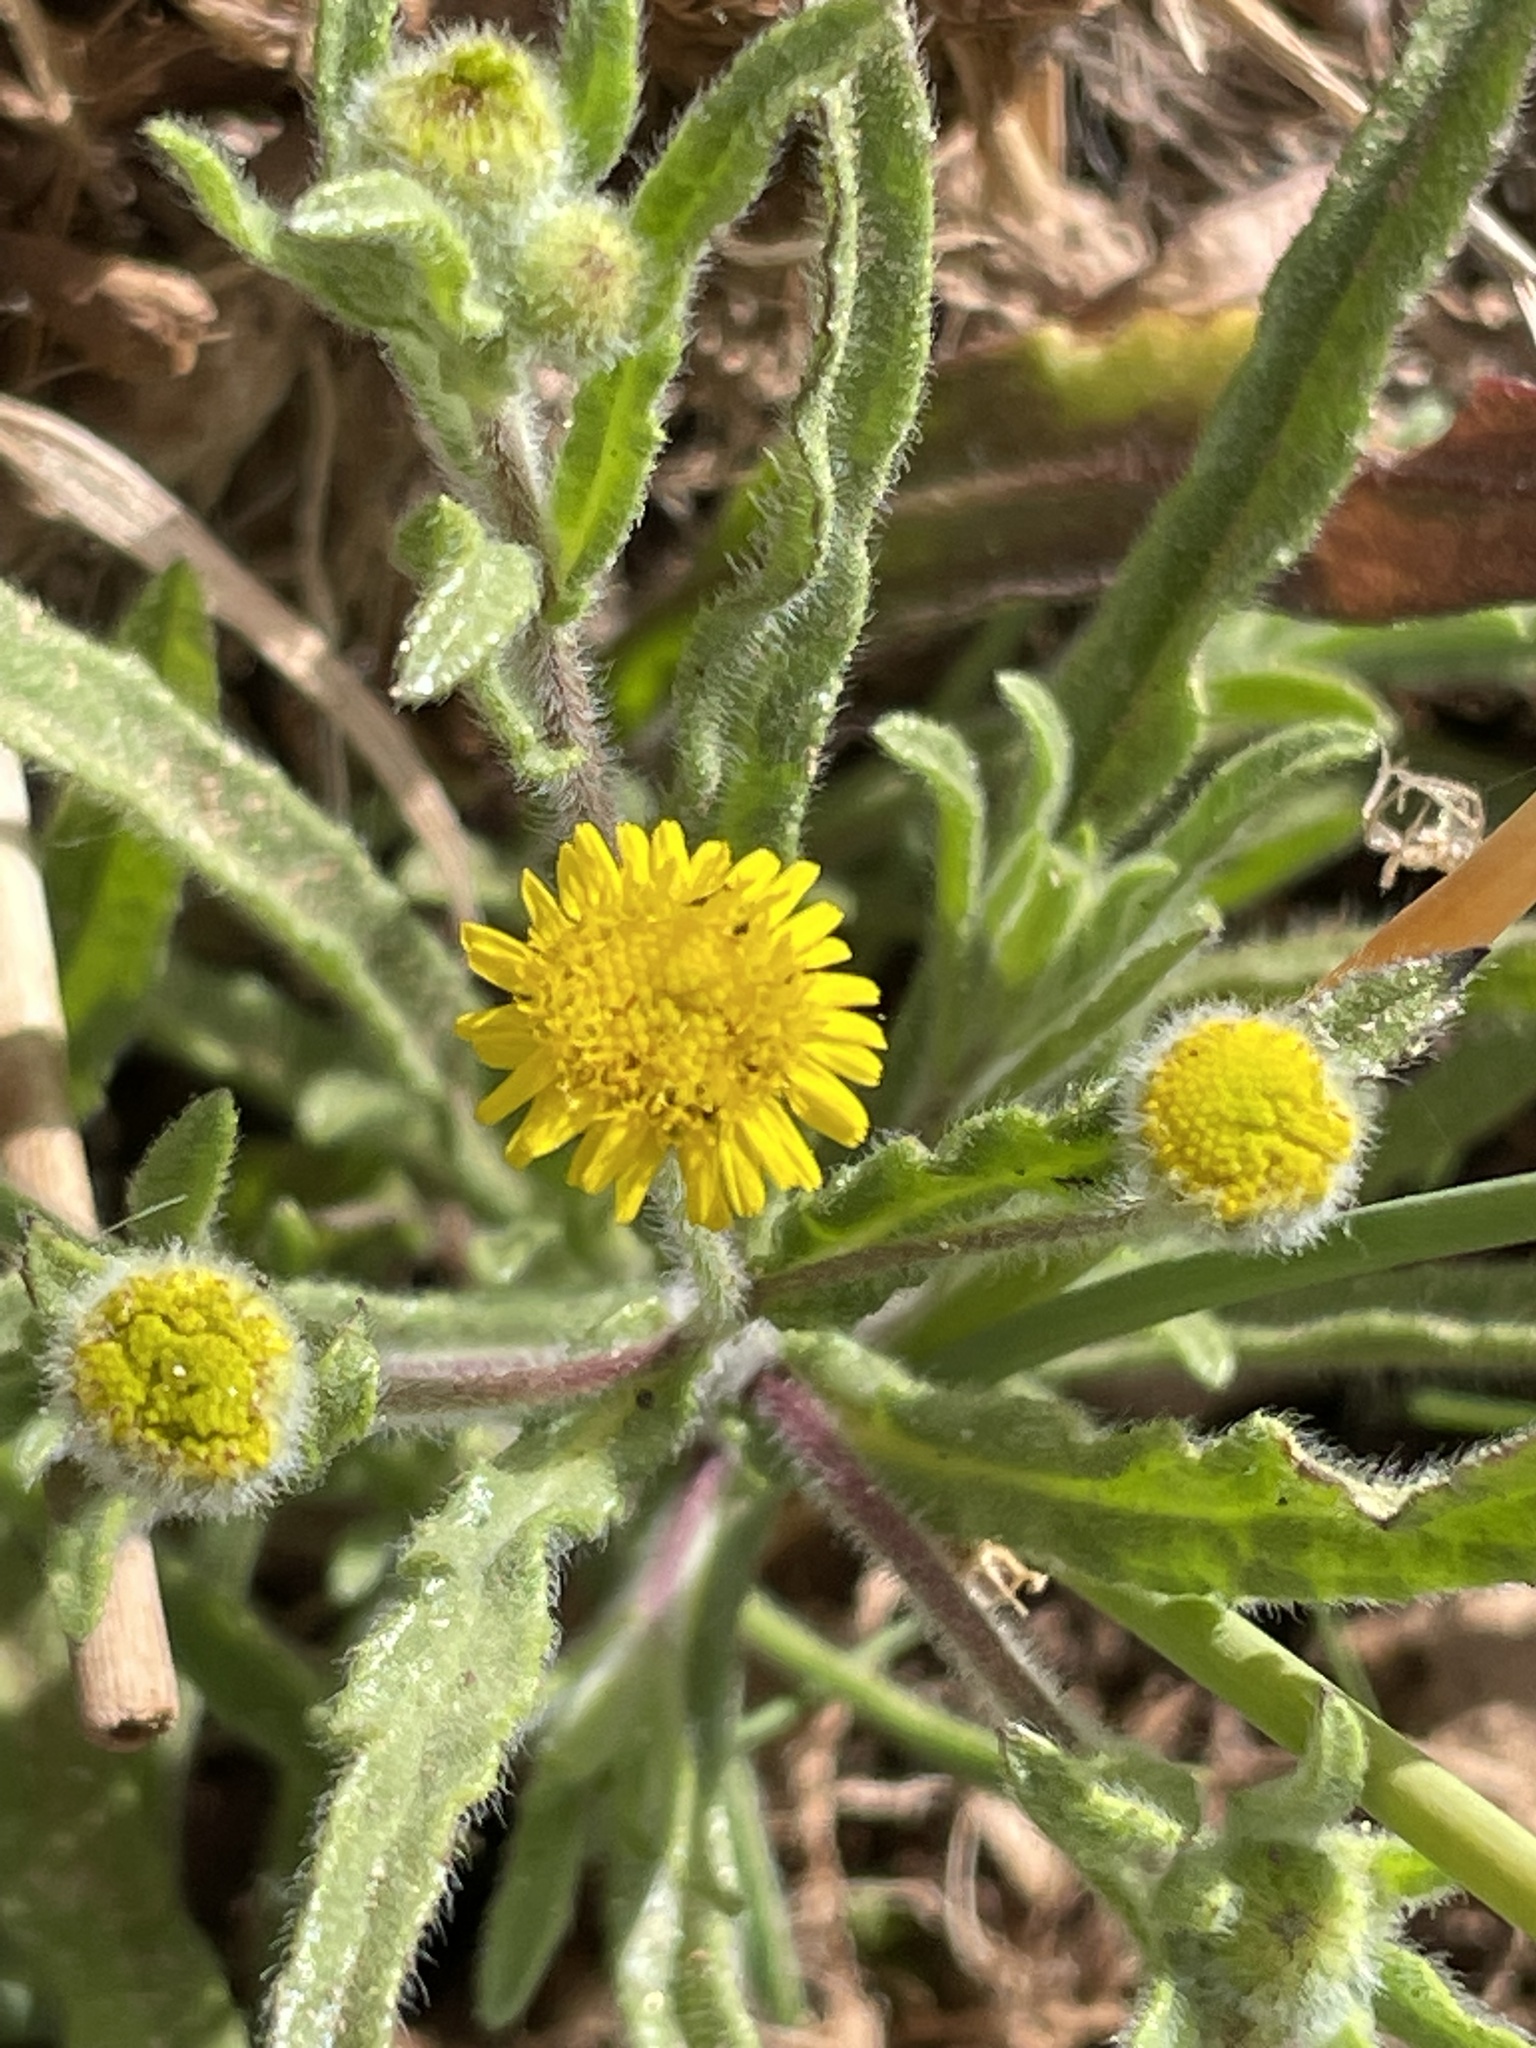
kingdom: Plantae
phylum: Tracheophyta
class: Magnoliopsida
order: Asterales
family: Asteraceae
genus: Pulicaria
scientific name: Pulicaria inuloides
